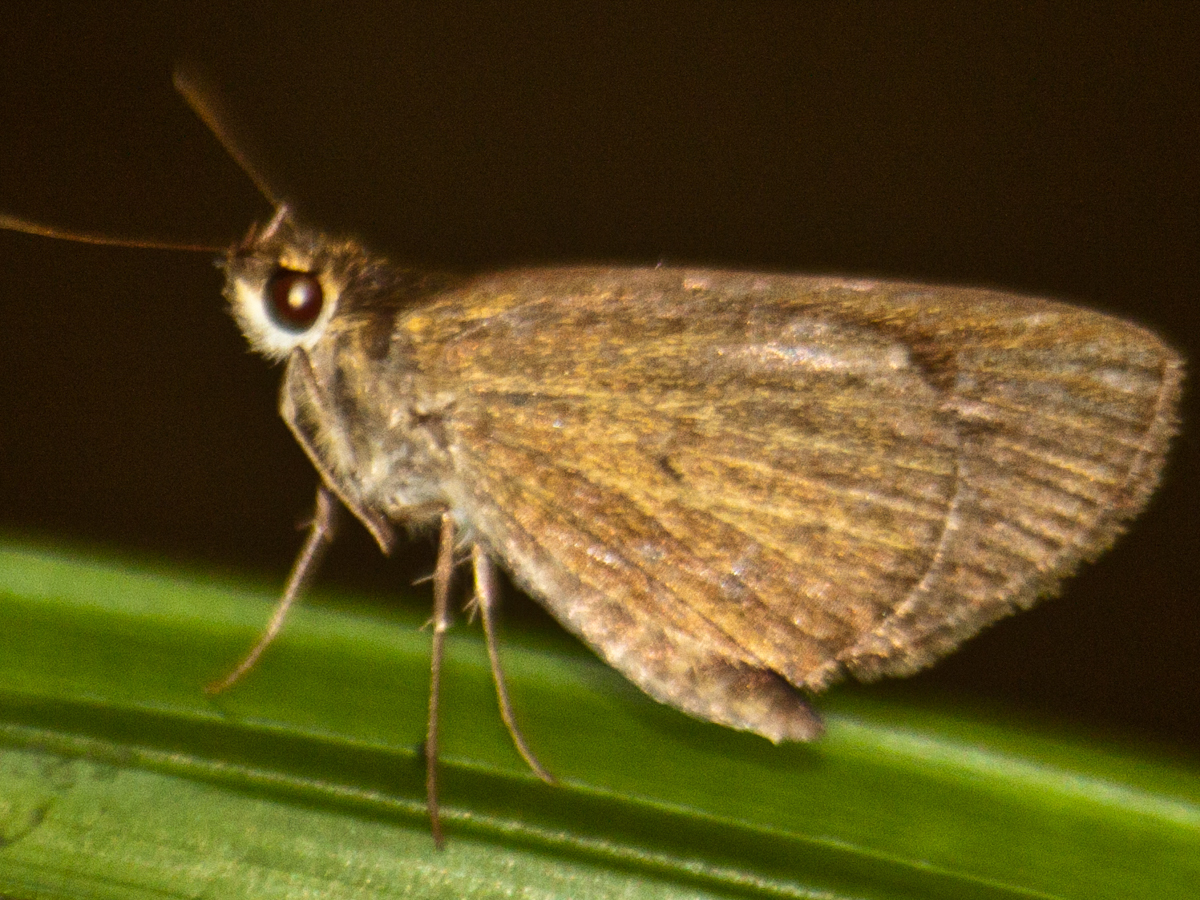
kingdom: Animalia
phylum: Arthropoda
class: Insecta
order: Lepidoptera
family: Hesperiidae
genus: Suada
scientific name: Suada swerga
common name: Grass bob
